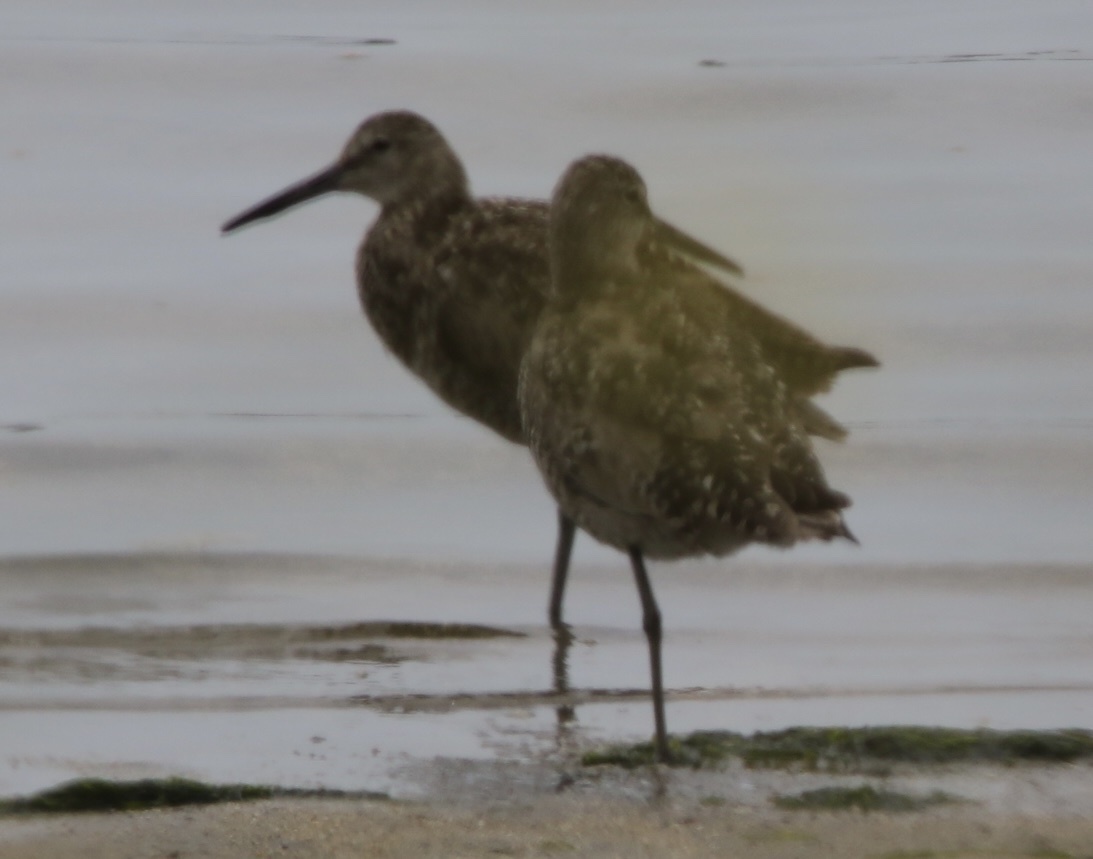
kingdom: Animalia
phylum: Chordata
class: Aves
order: Charadriiformes
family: Scolopacidae
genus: Tringa
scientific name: Tringa semipalmata
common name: Willet
